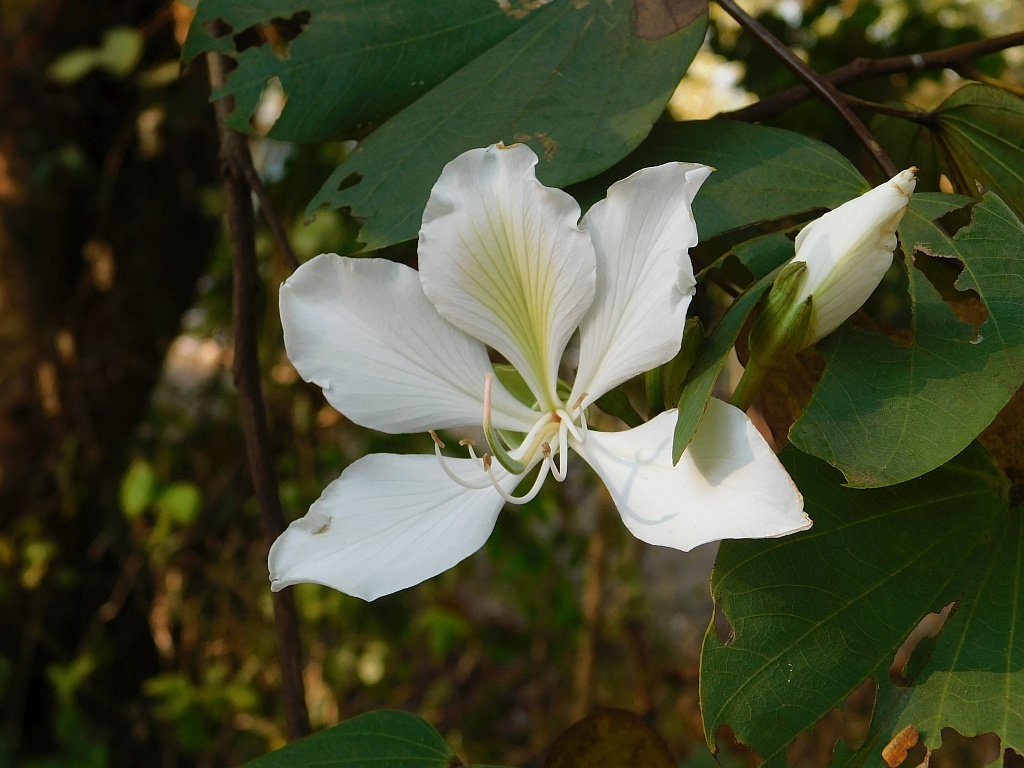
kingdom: Plantae
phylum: Tracheophyta
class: Magnoliopsida
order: Fabales
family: Fabaceae
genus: Bauhinia
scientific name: Bauhinia variegata
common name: Mountain ebony
